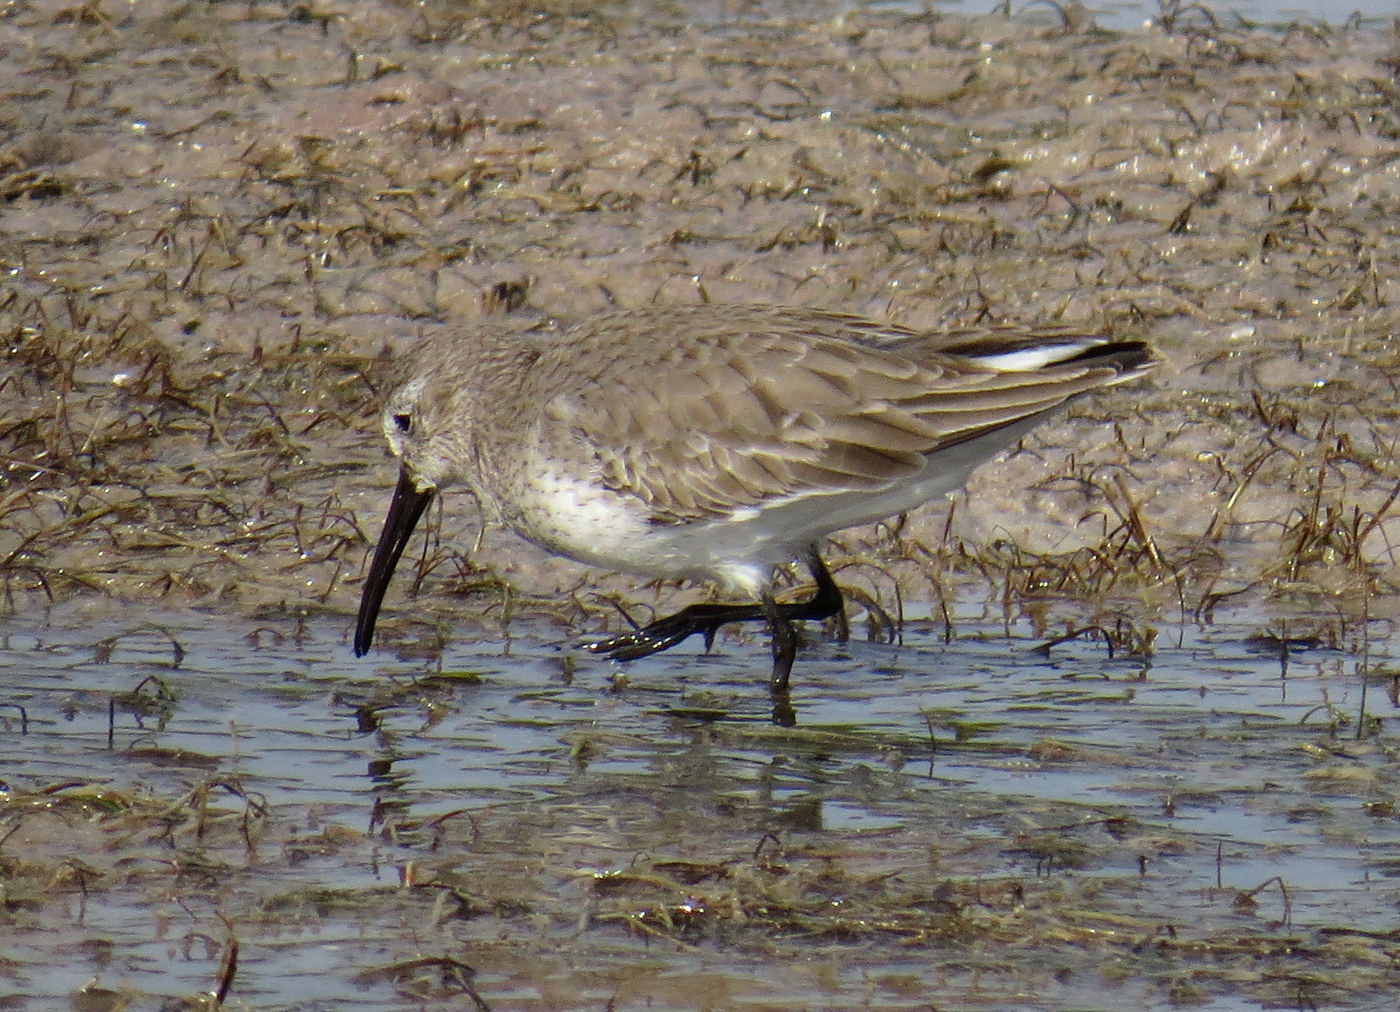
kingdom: Animalia
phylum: Chordata
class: Aves
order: Charadriiformes
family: Scolopacidae
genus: Calidris
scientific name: Calidris alpina
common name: Dunlin
